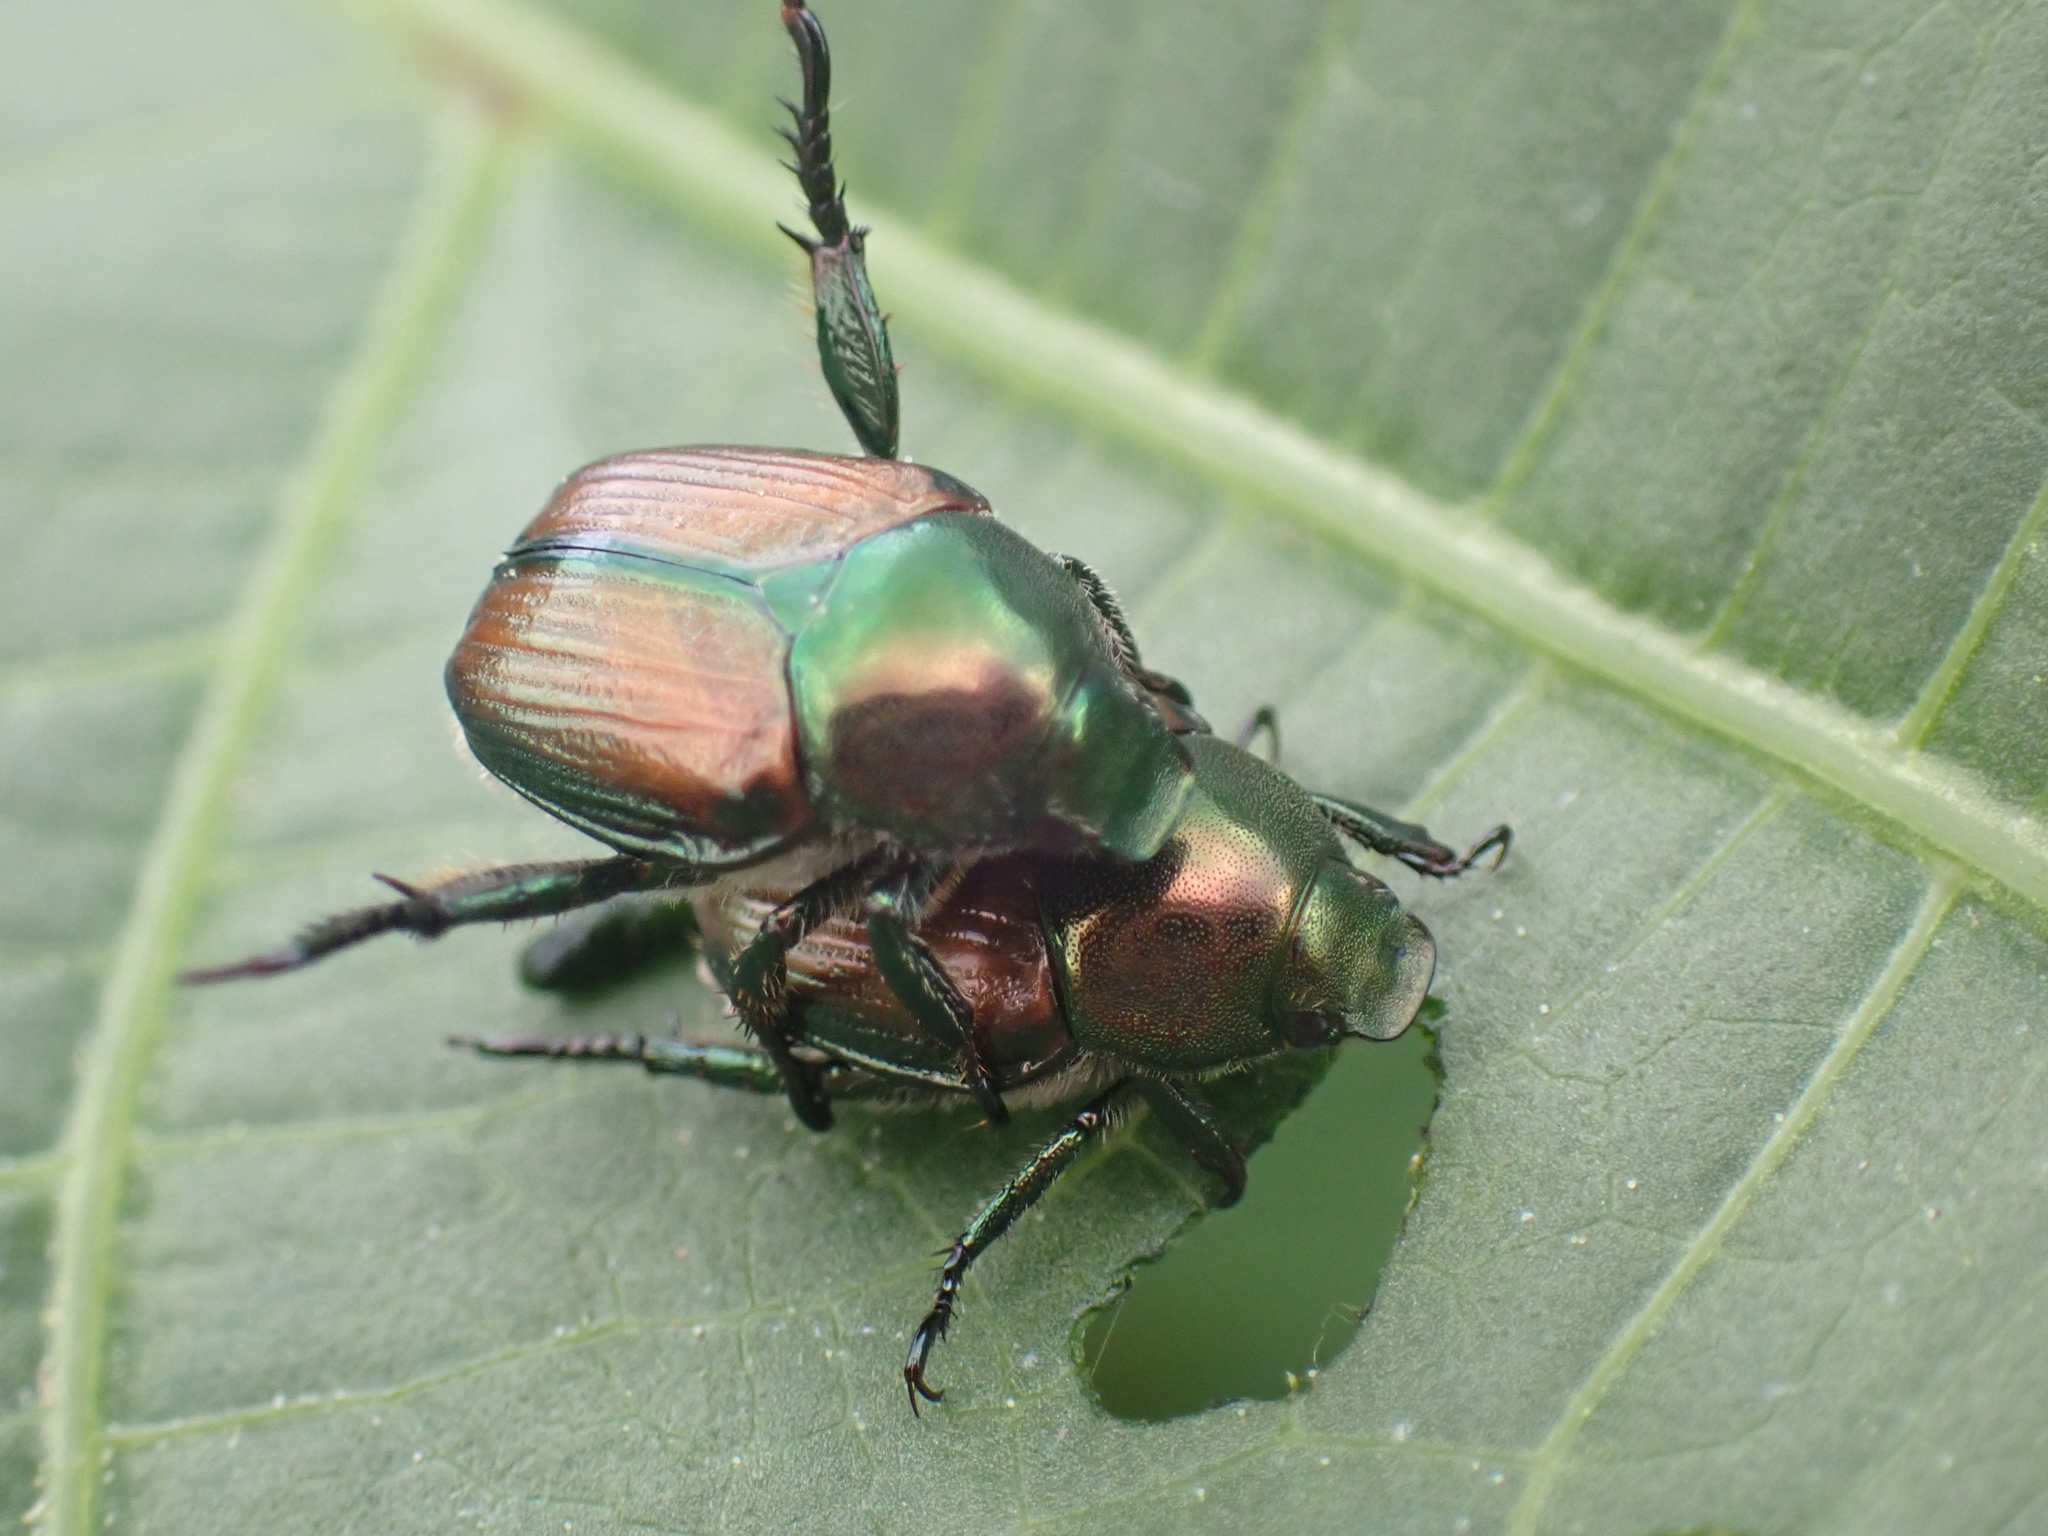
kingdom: Animalia
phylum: Arthropoda
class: Insecta
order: Coleoptera
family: Scarabaeidae
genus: Popillia
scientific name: Popillia japonica
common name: Japanese beetle
